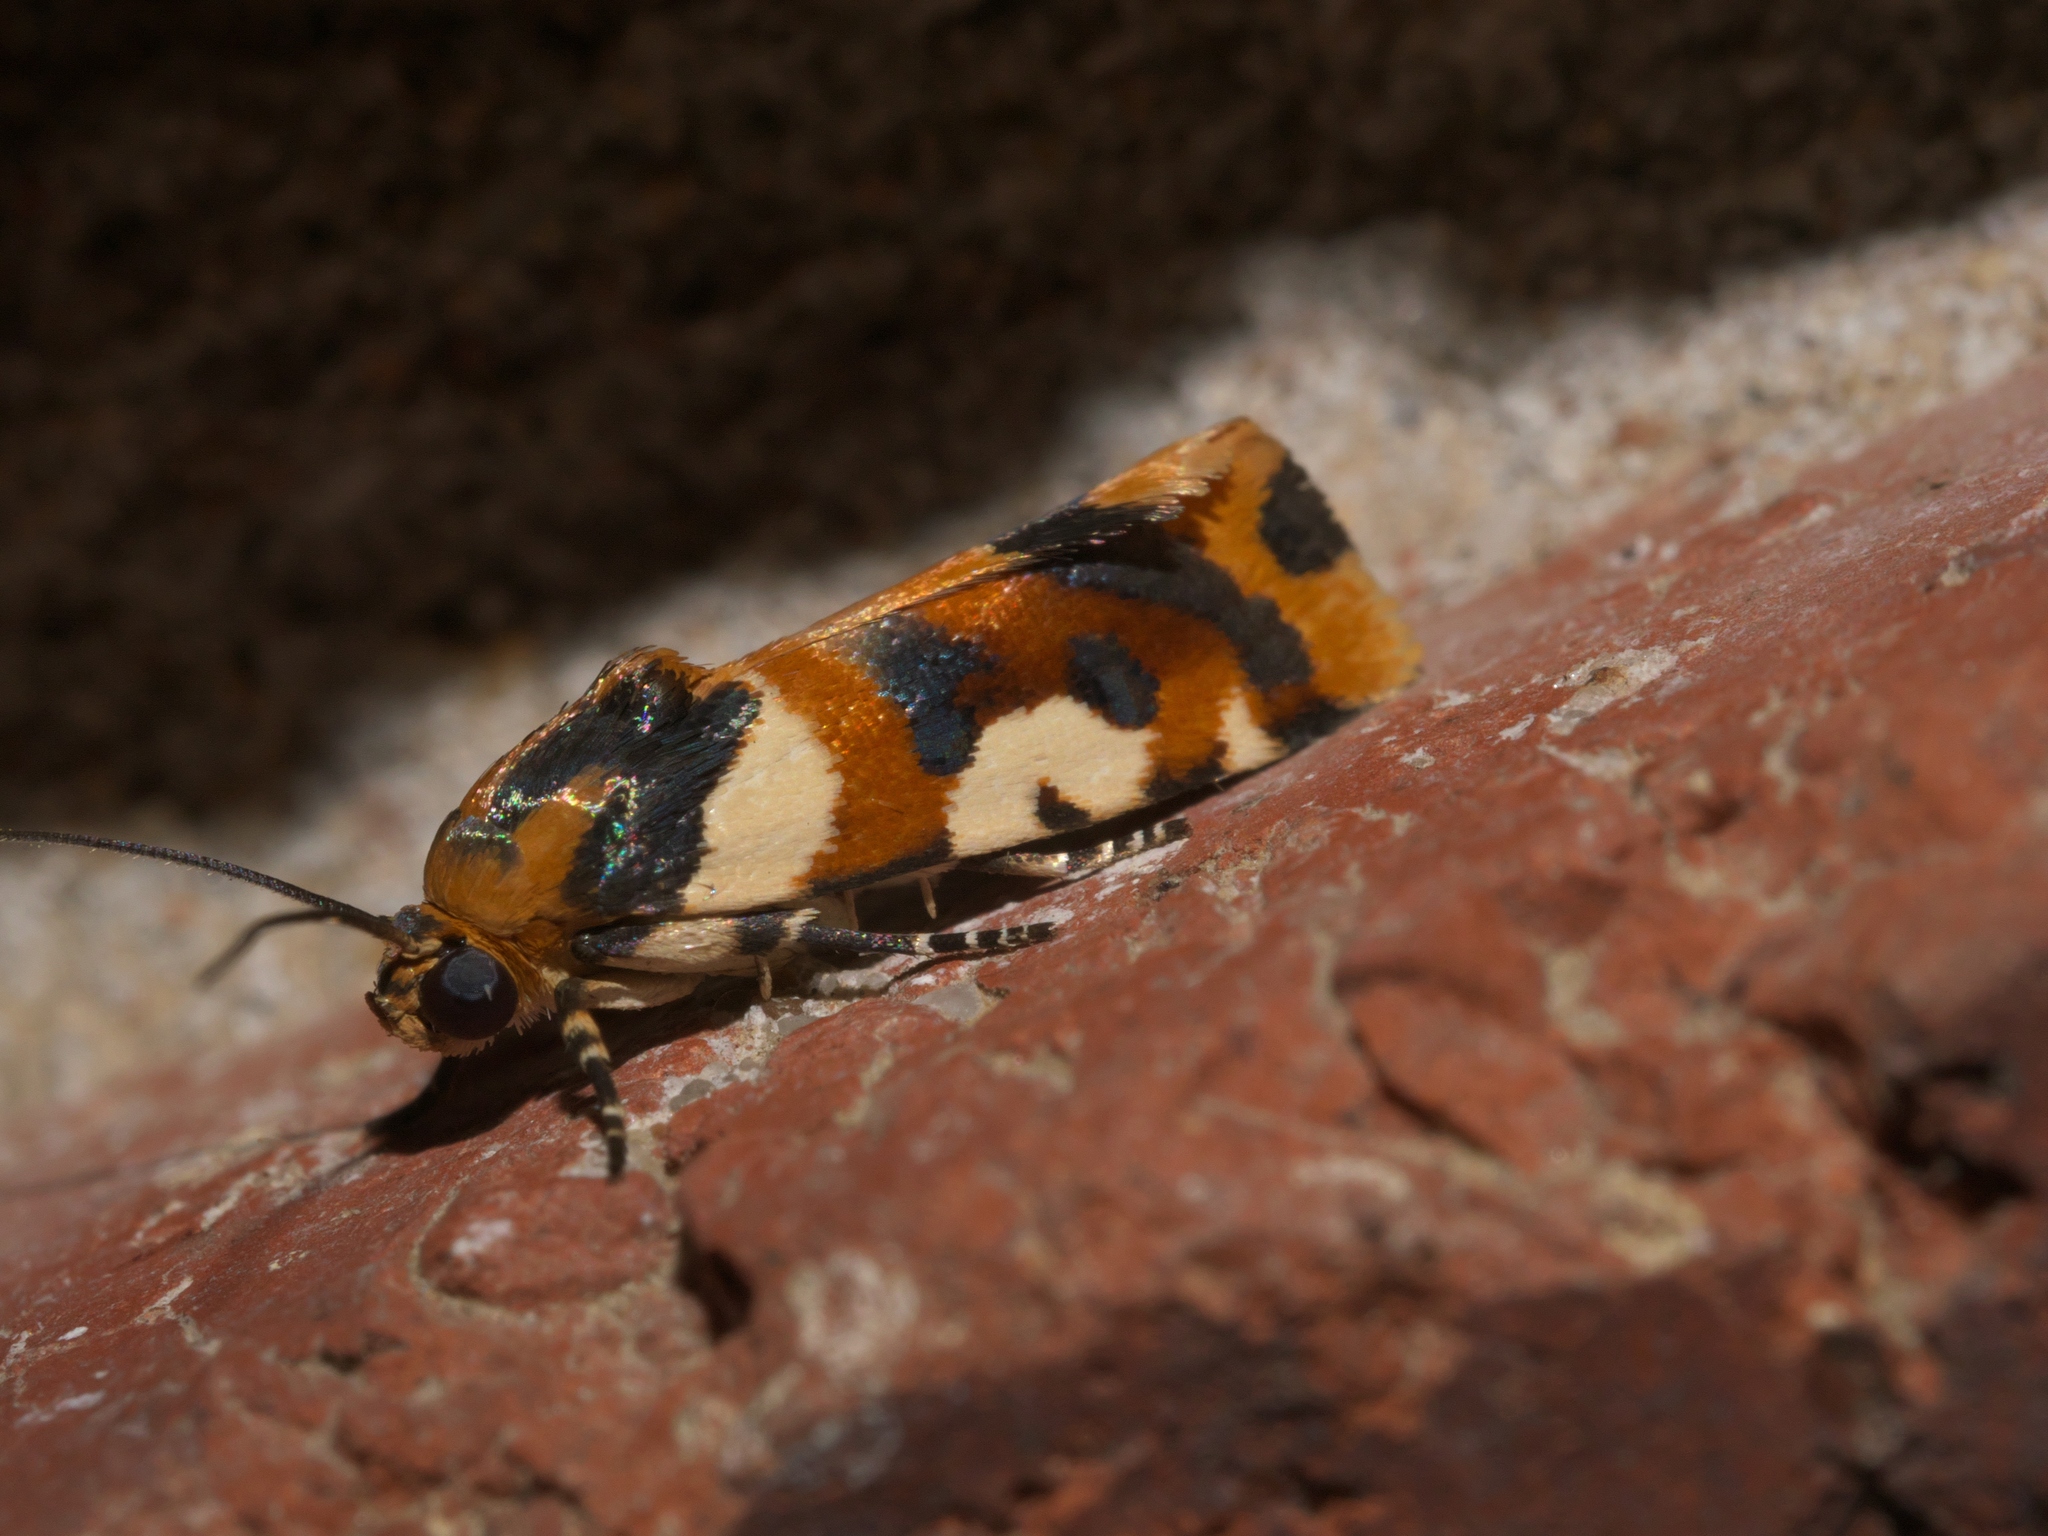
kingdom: Animalia
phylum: Arthropoda
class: Insecta
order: Lepidoptera
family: Noctuidae
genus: Acontia
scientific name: Acontia dama
